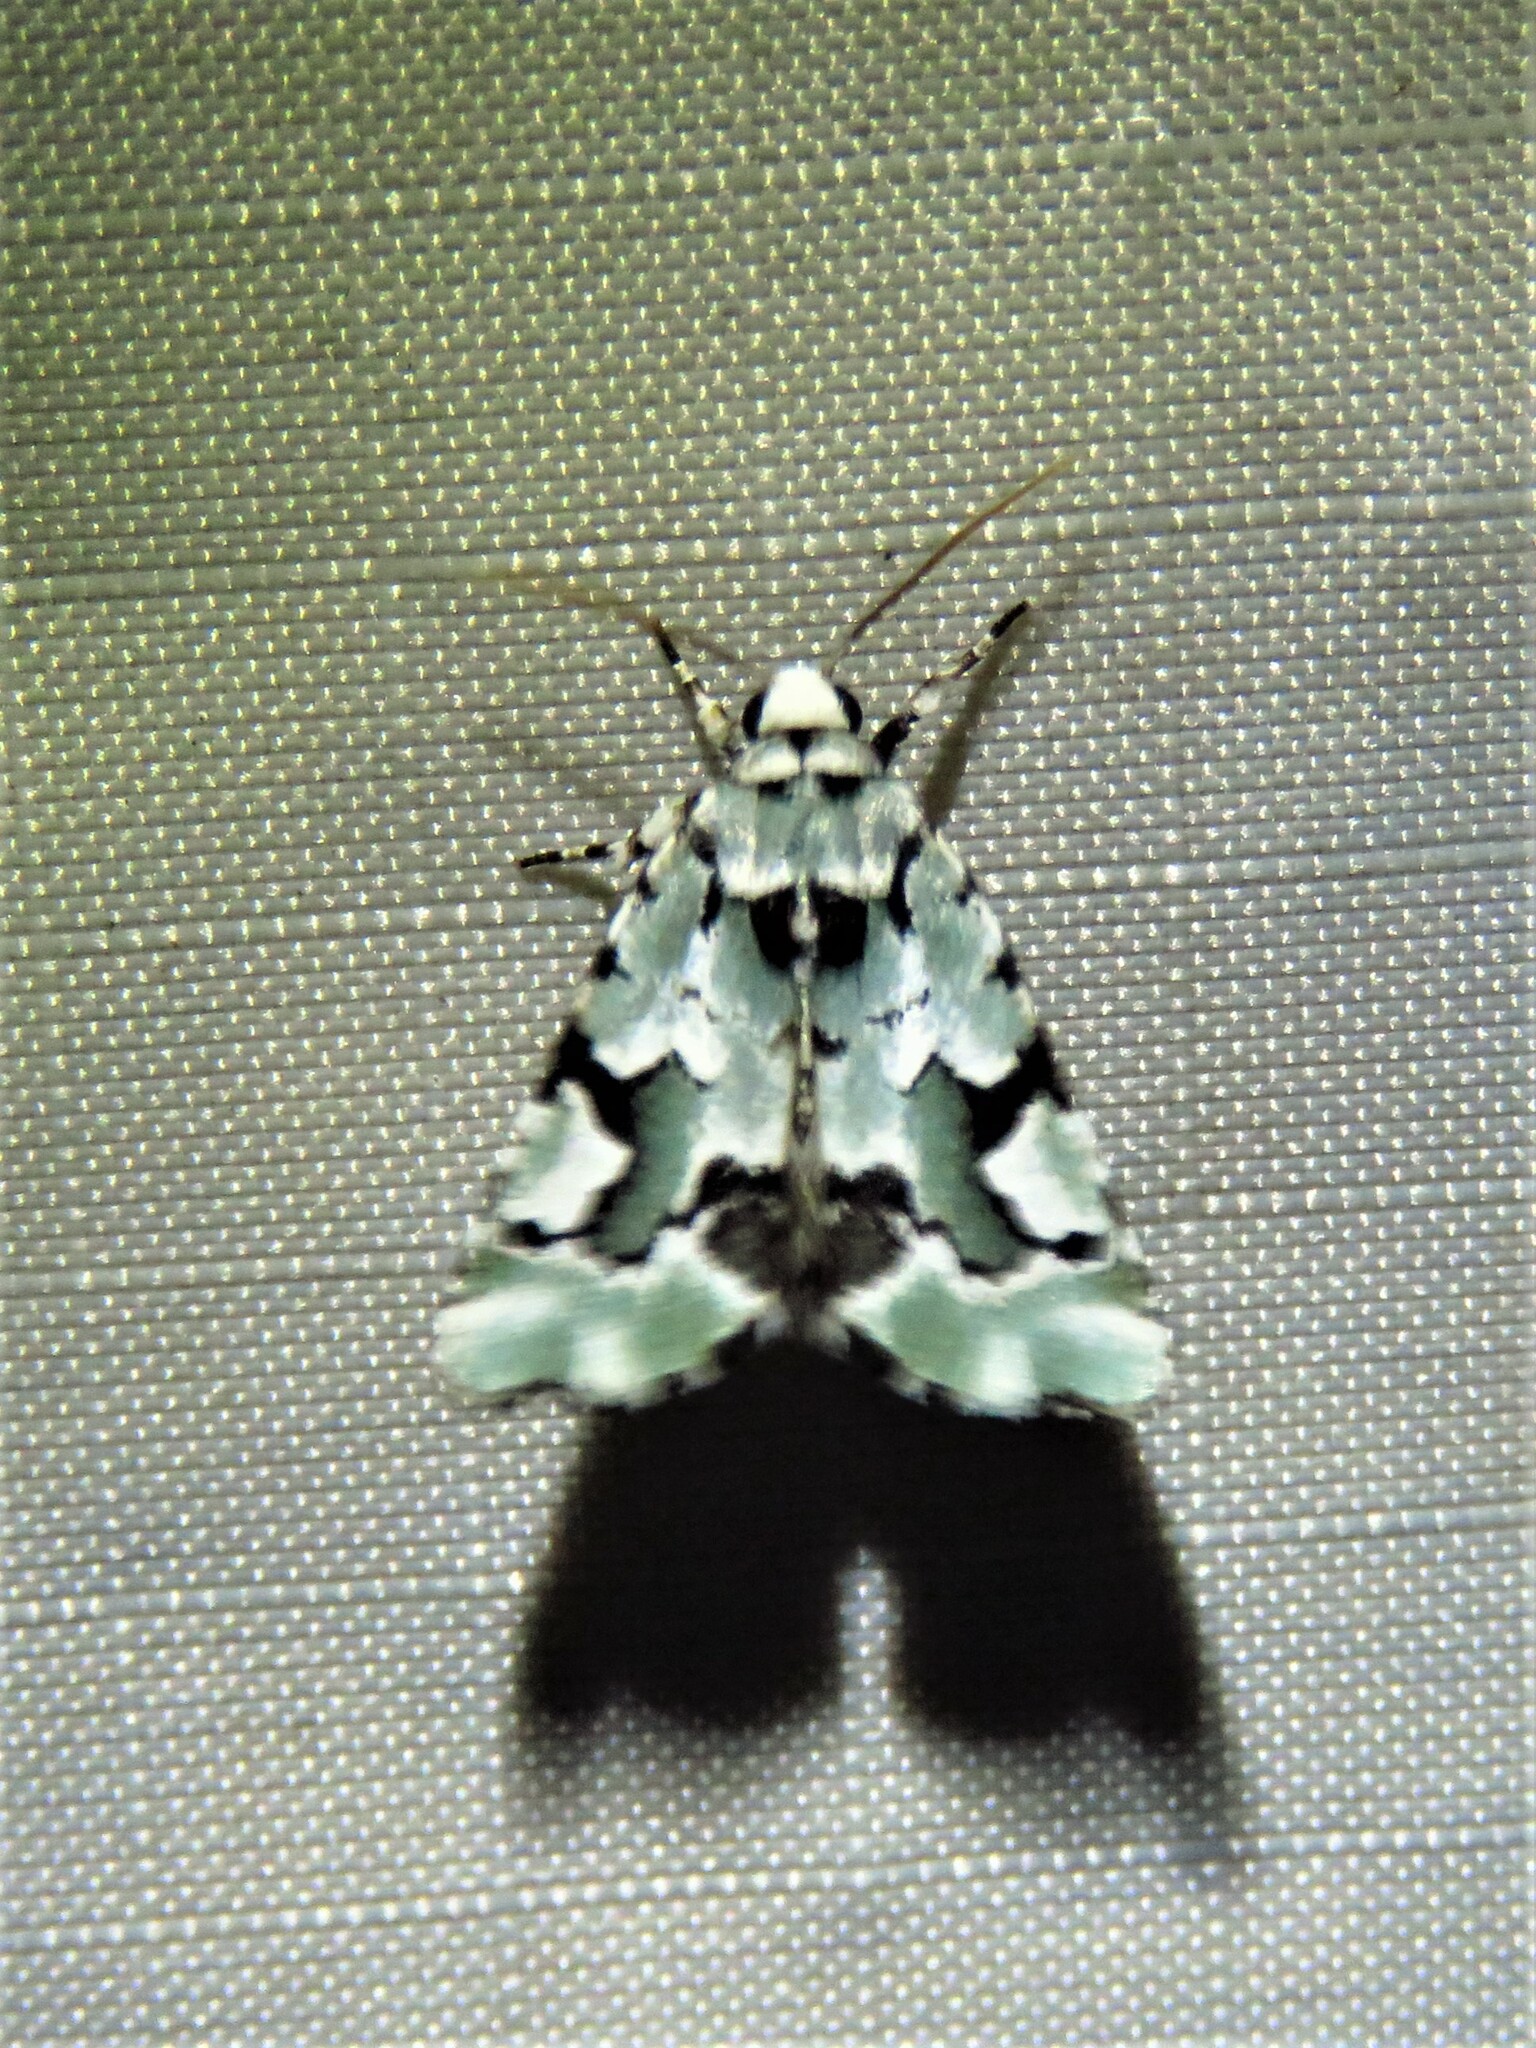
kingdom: Animalia
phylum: Arthropoda
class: Insecta
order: Lepidoptera
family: Noctuidae
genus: Emarginea
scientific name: Emarginea percara
